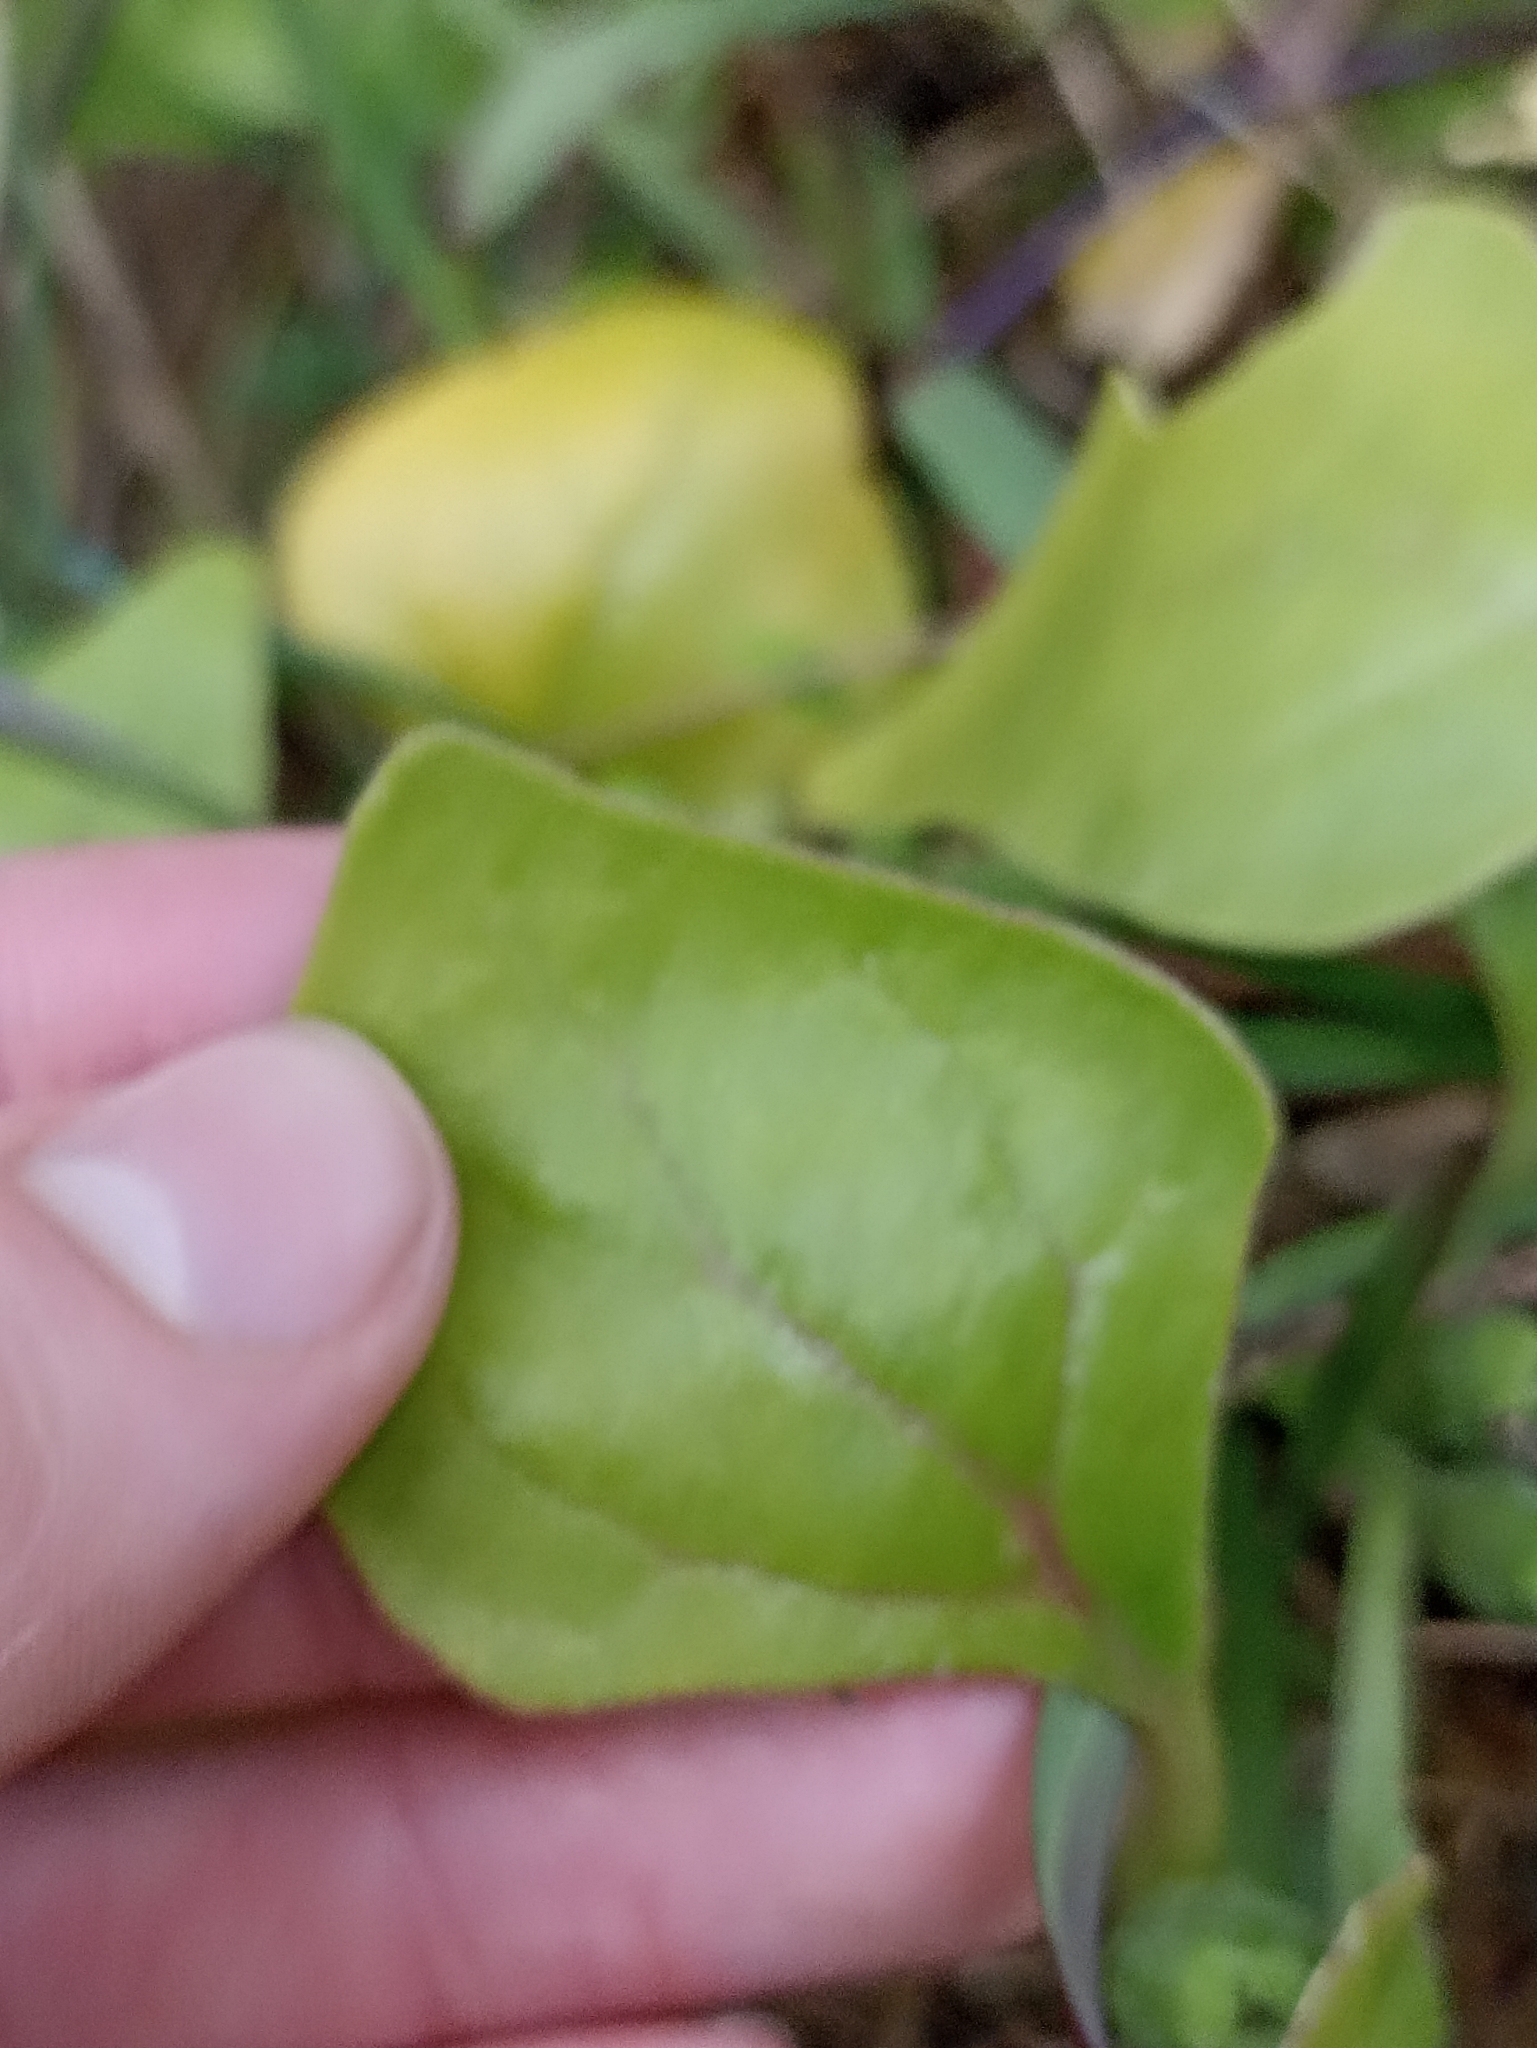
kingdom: Plantae
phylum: Tracheophyta
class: Magnoliopsida
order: Caryophyllales
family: Aizoaceae
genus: Tetragonia
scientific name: Tetragonia tetragonoides
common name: New zealand-spinach
